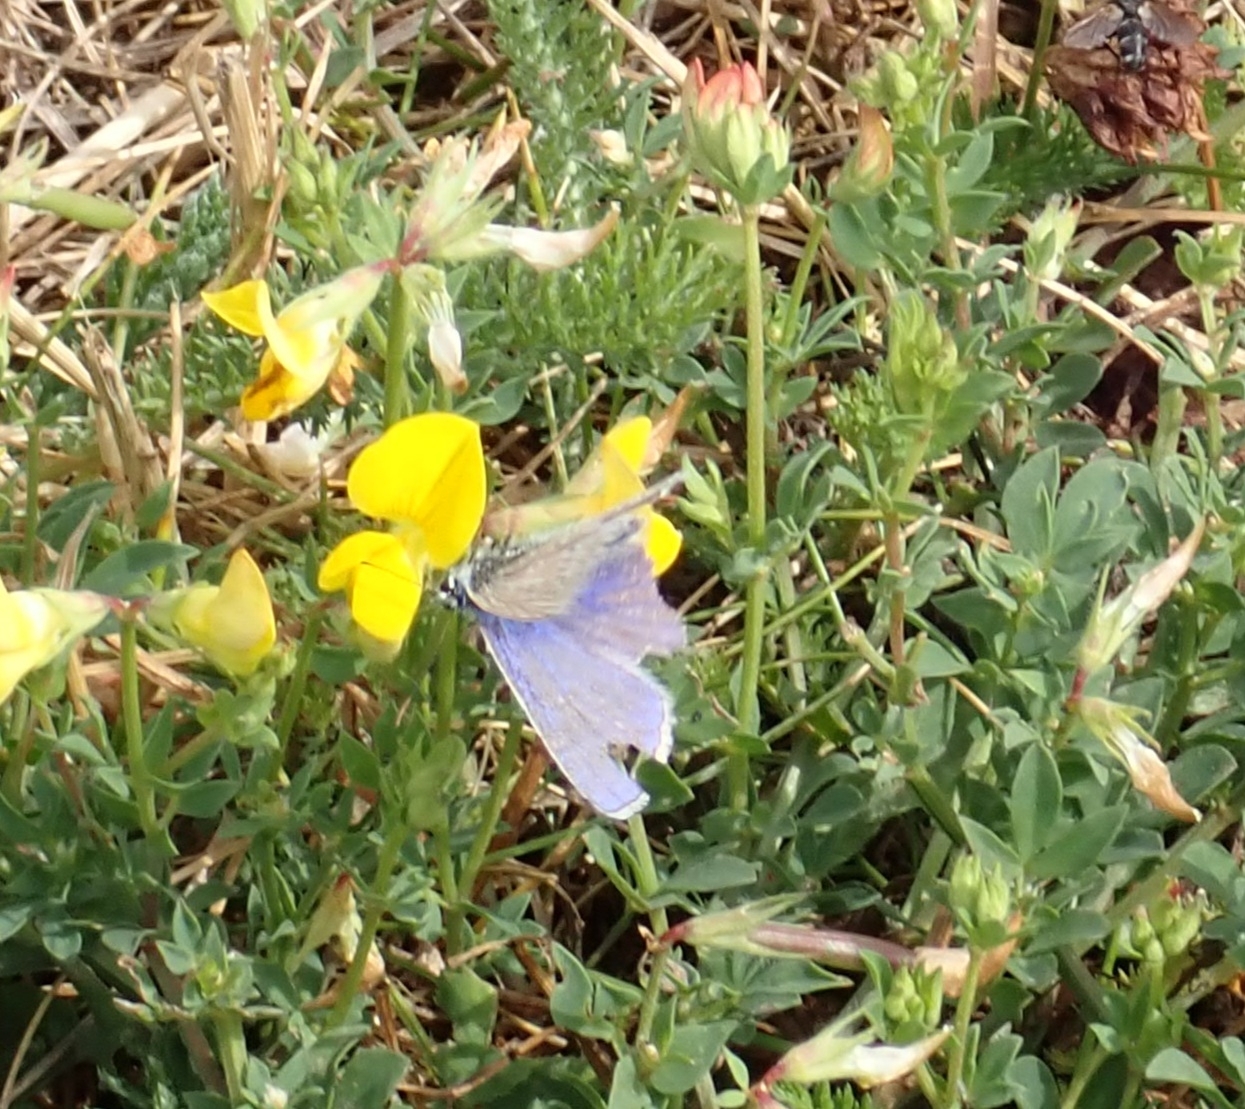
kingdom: Animalia
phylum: Arthropoda
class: Insecta
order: Lepidoptera
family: Lycaenidae
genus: Polyommatus
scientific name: Polyommatus icarus
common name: Common blue
